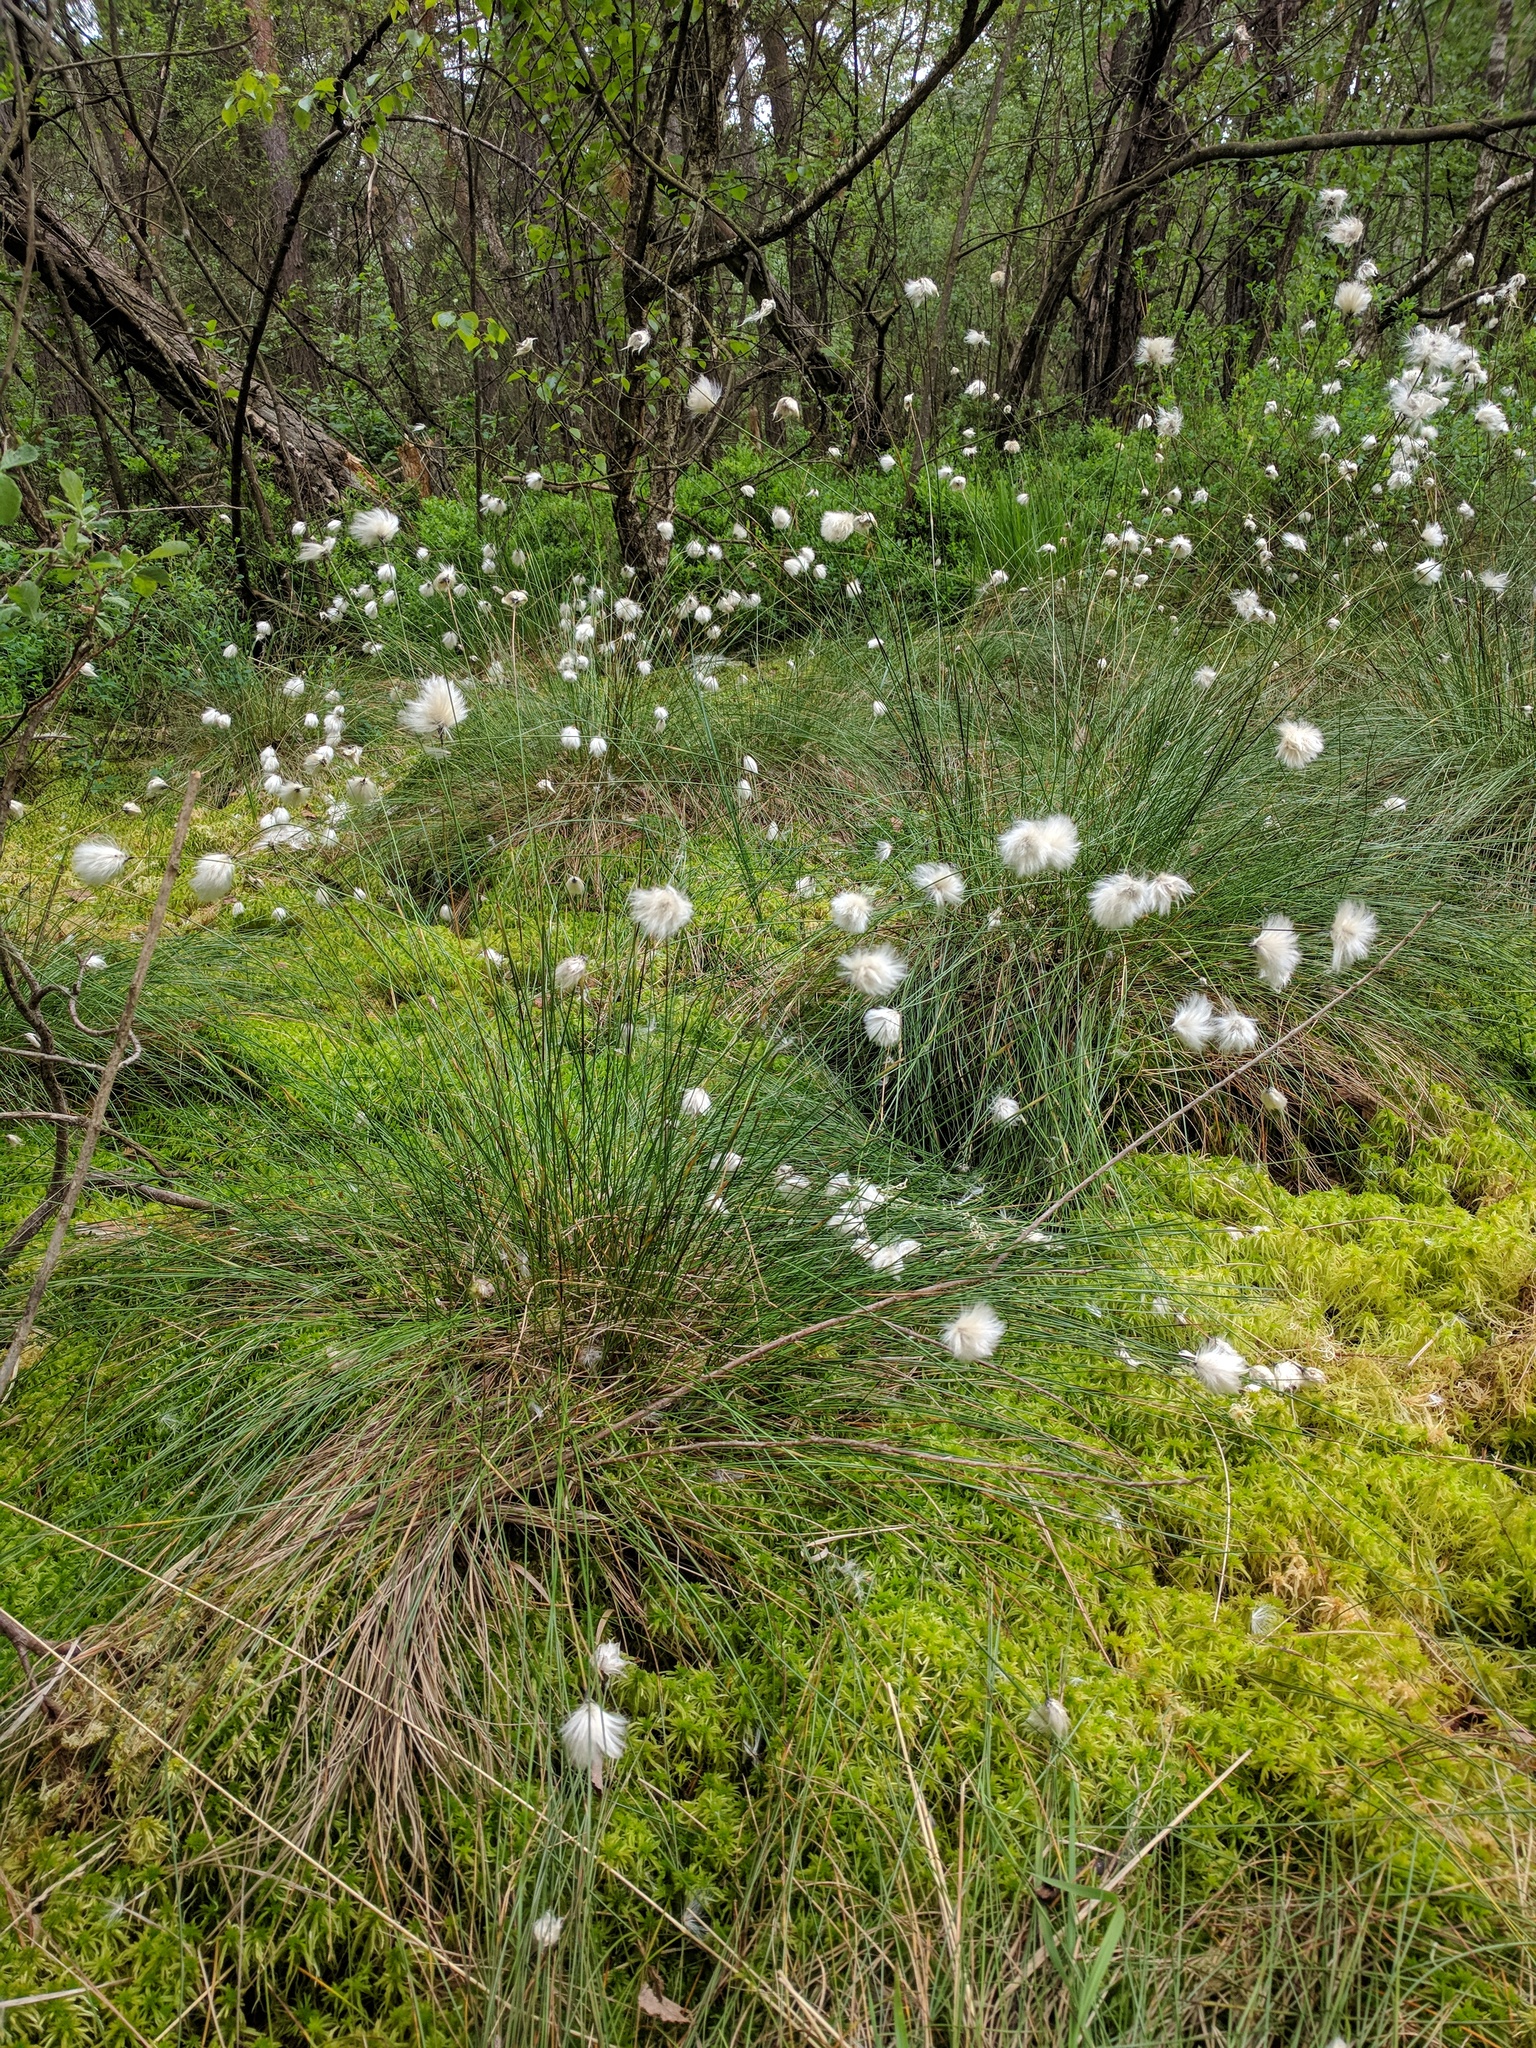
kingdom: Plantae
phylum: Tracheophyta
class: Liliopsida
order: Poales
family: Cyperaceae
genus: Eriophorum
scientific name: Eriophorum vaginatum
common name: Hare's-tail cottongrass
